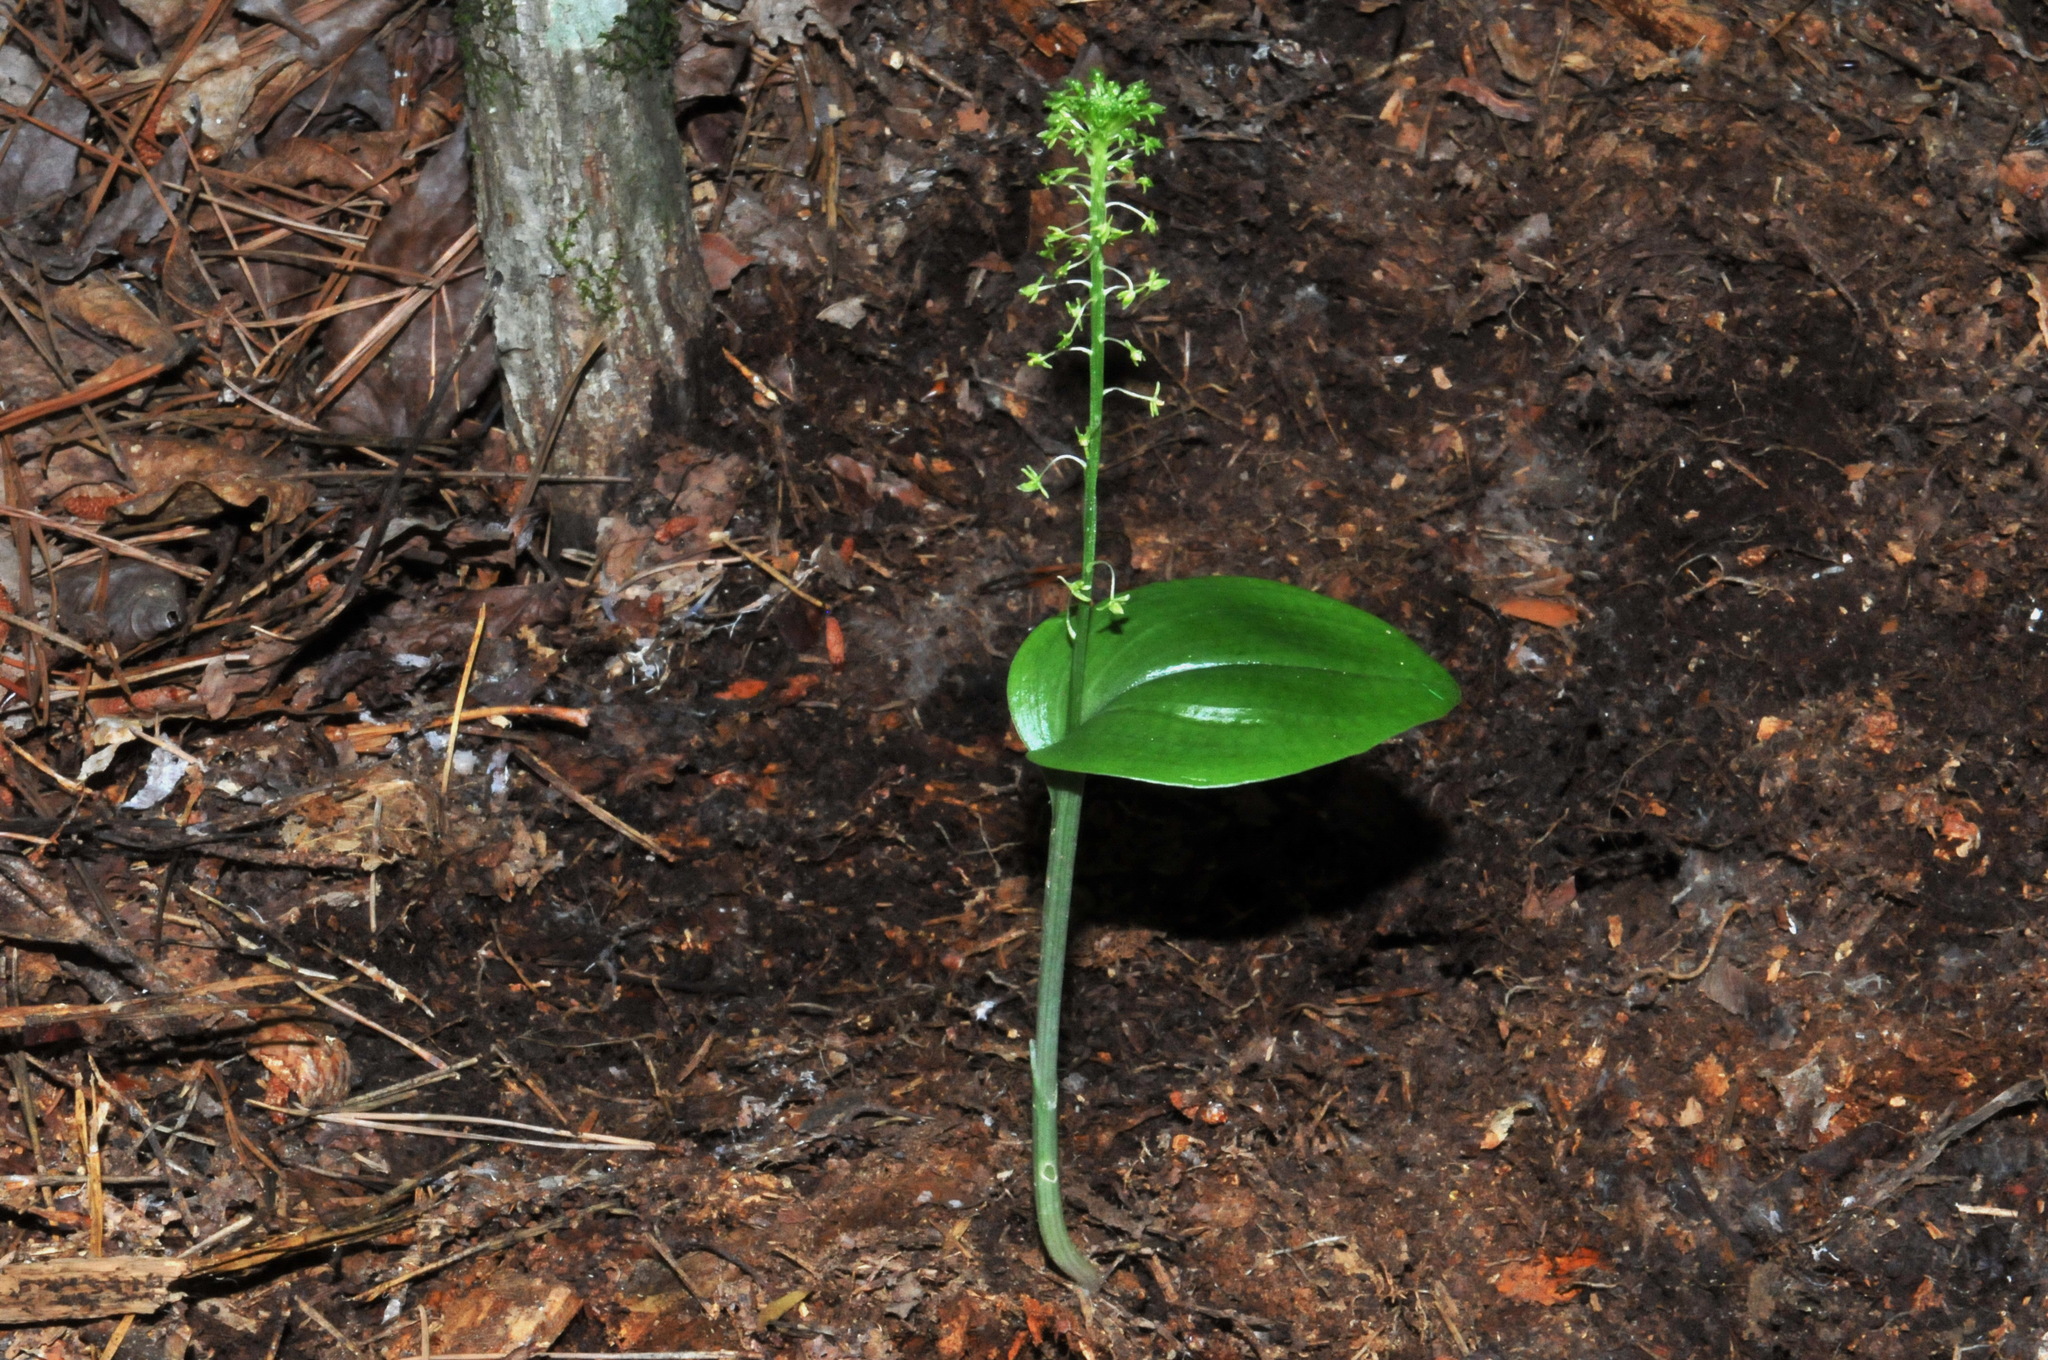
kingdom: Plantae
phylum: Tracheophyta
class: Liliopsida
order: Asparagales
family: Orchidaceae
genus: Malaxis
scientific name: Malaxis unifolia
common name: Green adder's-mouth
